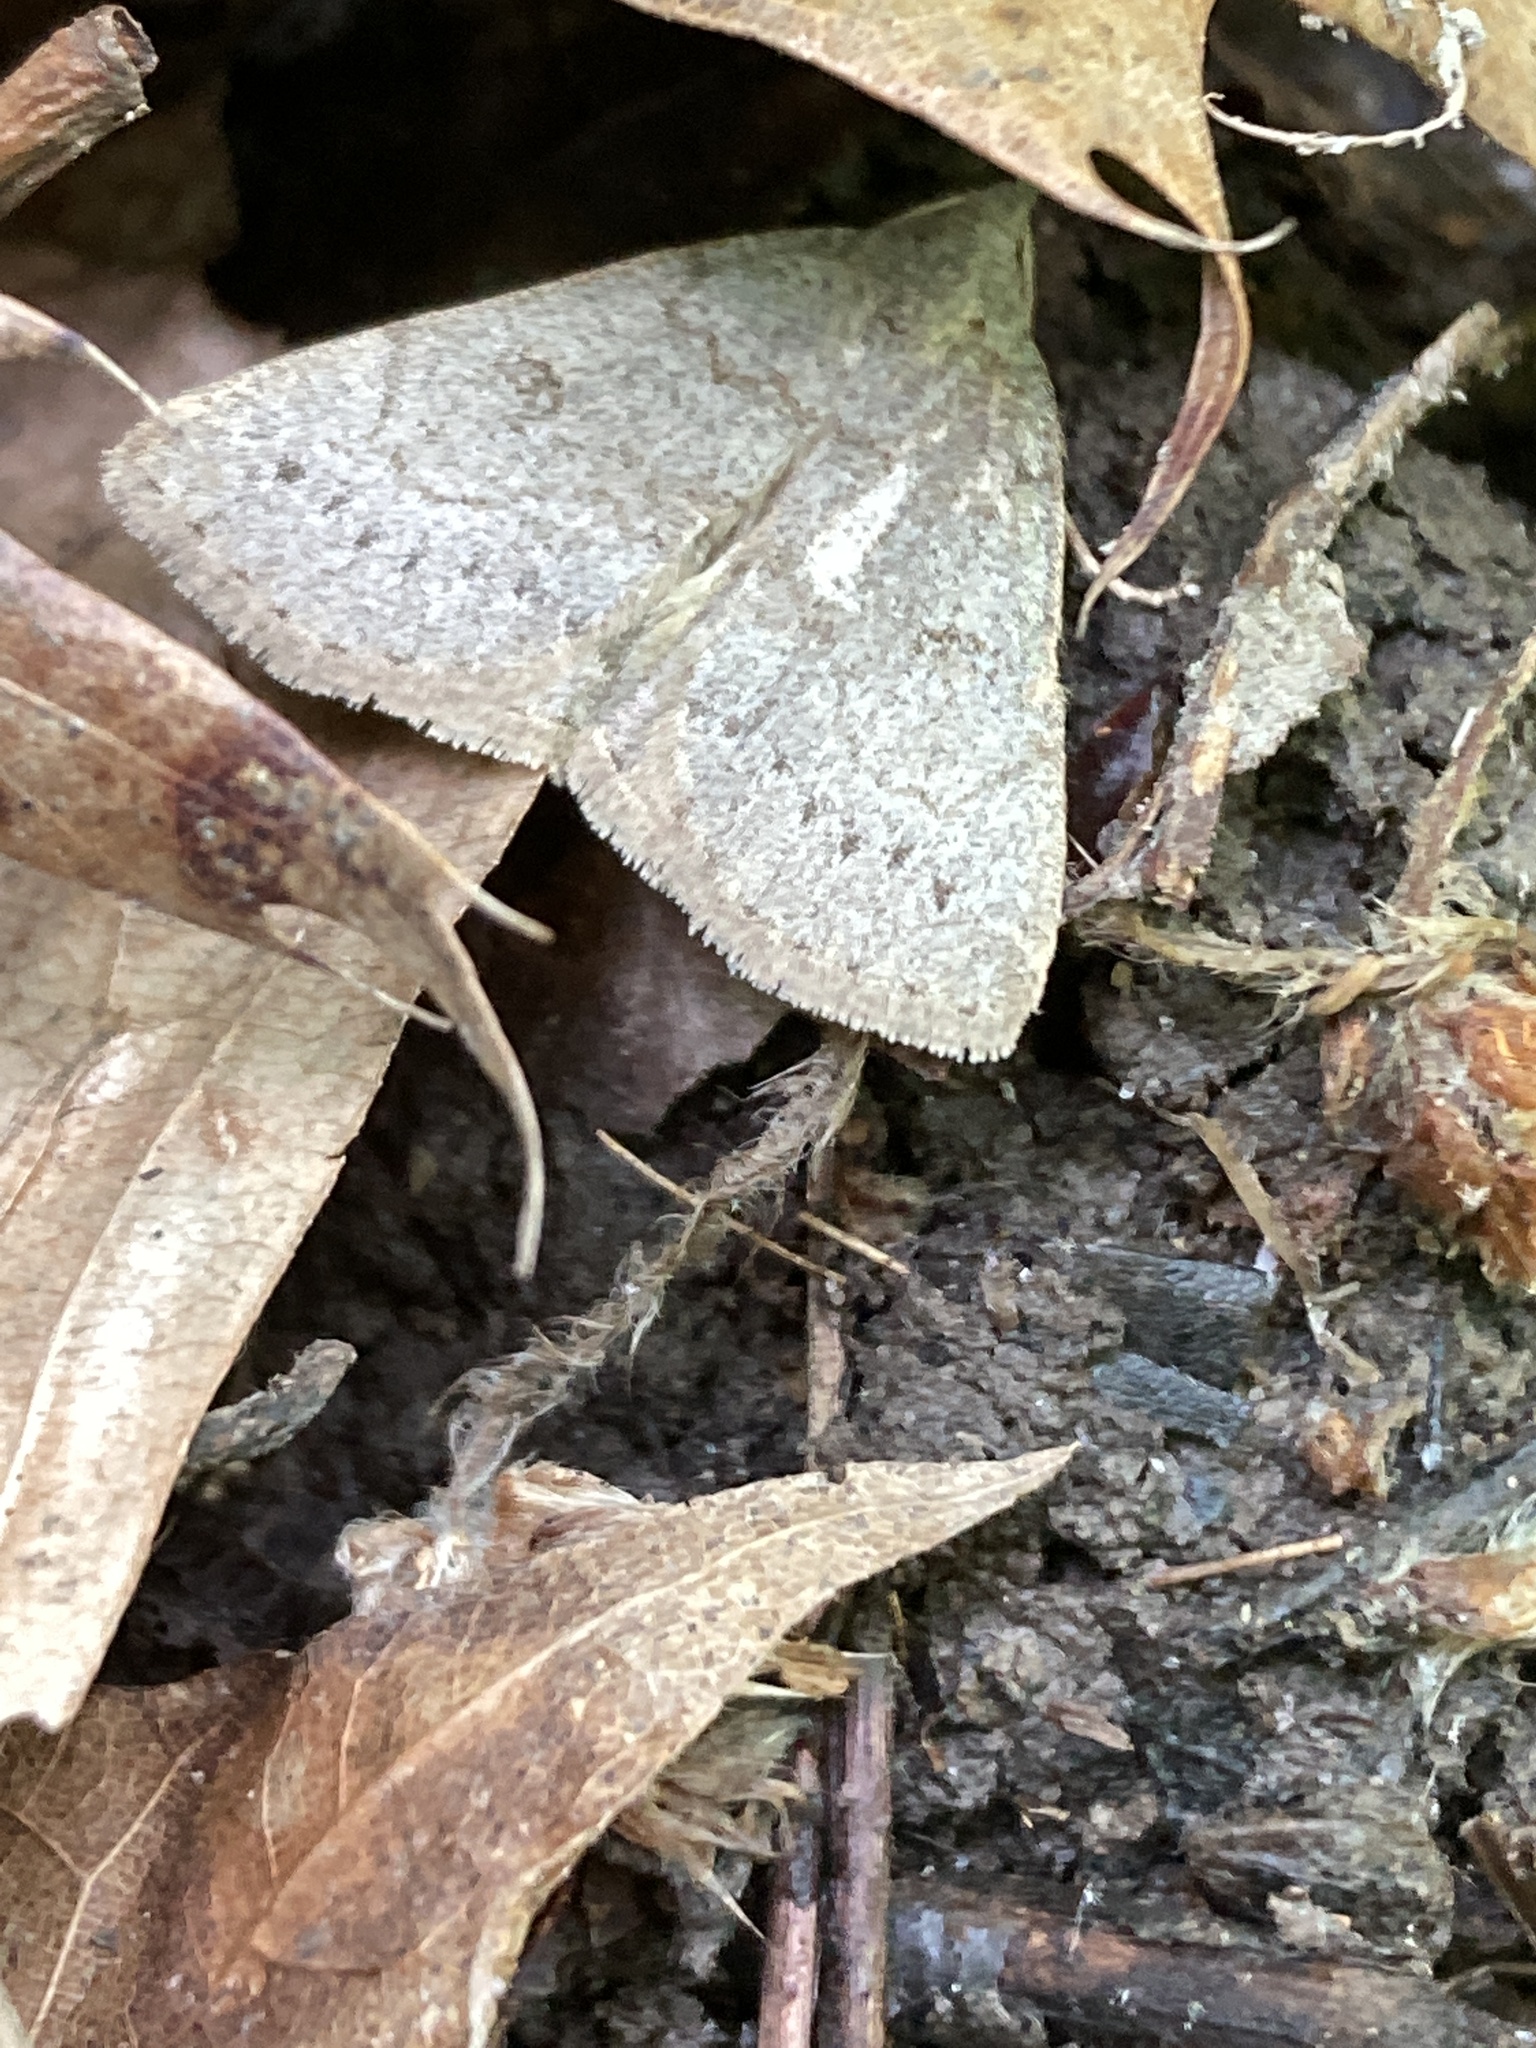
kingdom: Animalia
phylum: Arthropoda
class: Insecta
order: Lepidoptera
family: Erebidae
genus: Macrochilo
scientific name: Macrochilo morbidalis
